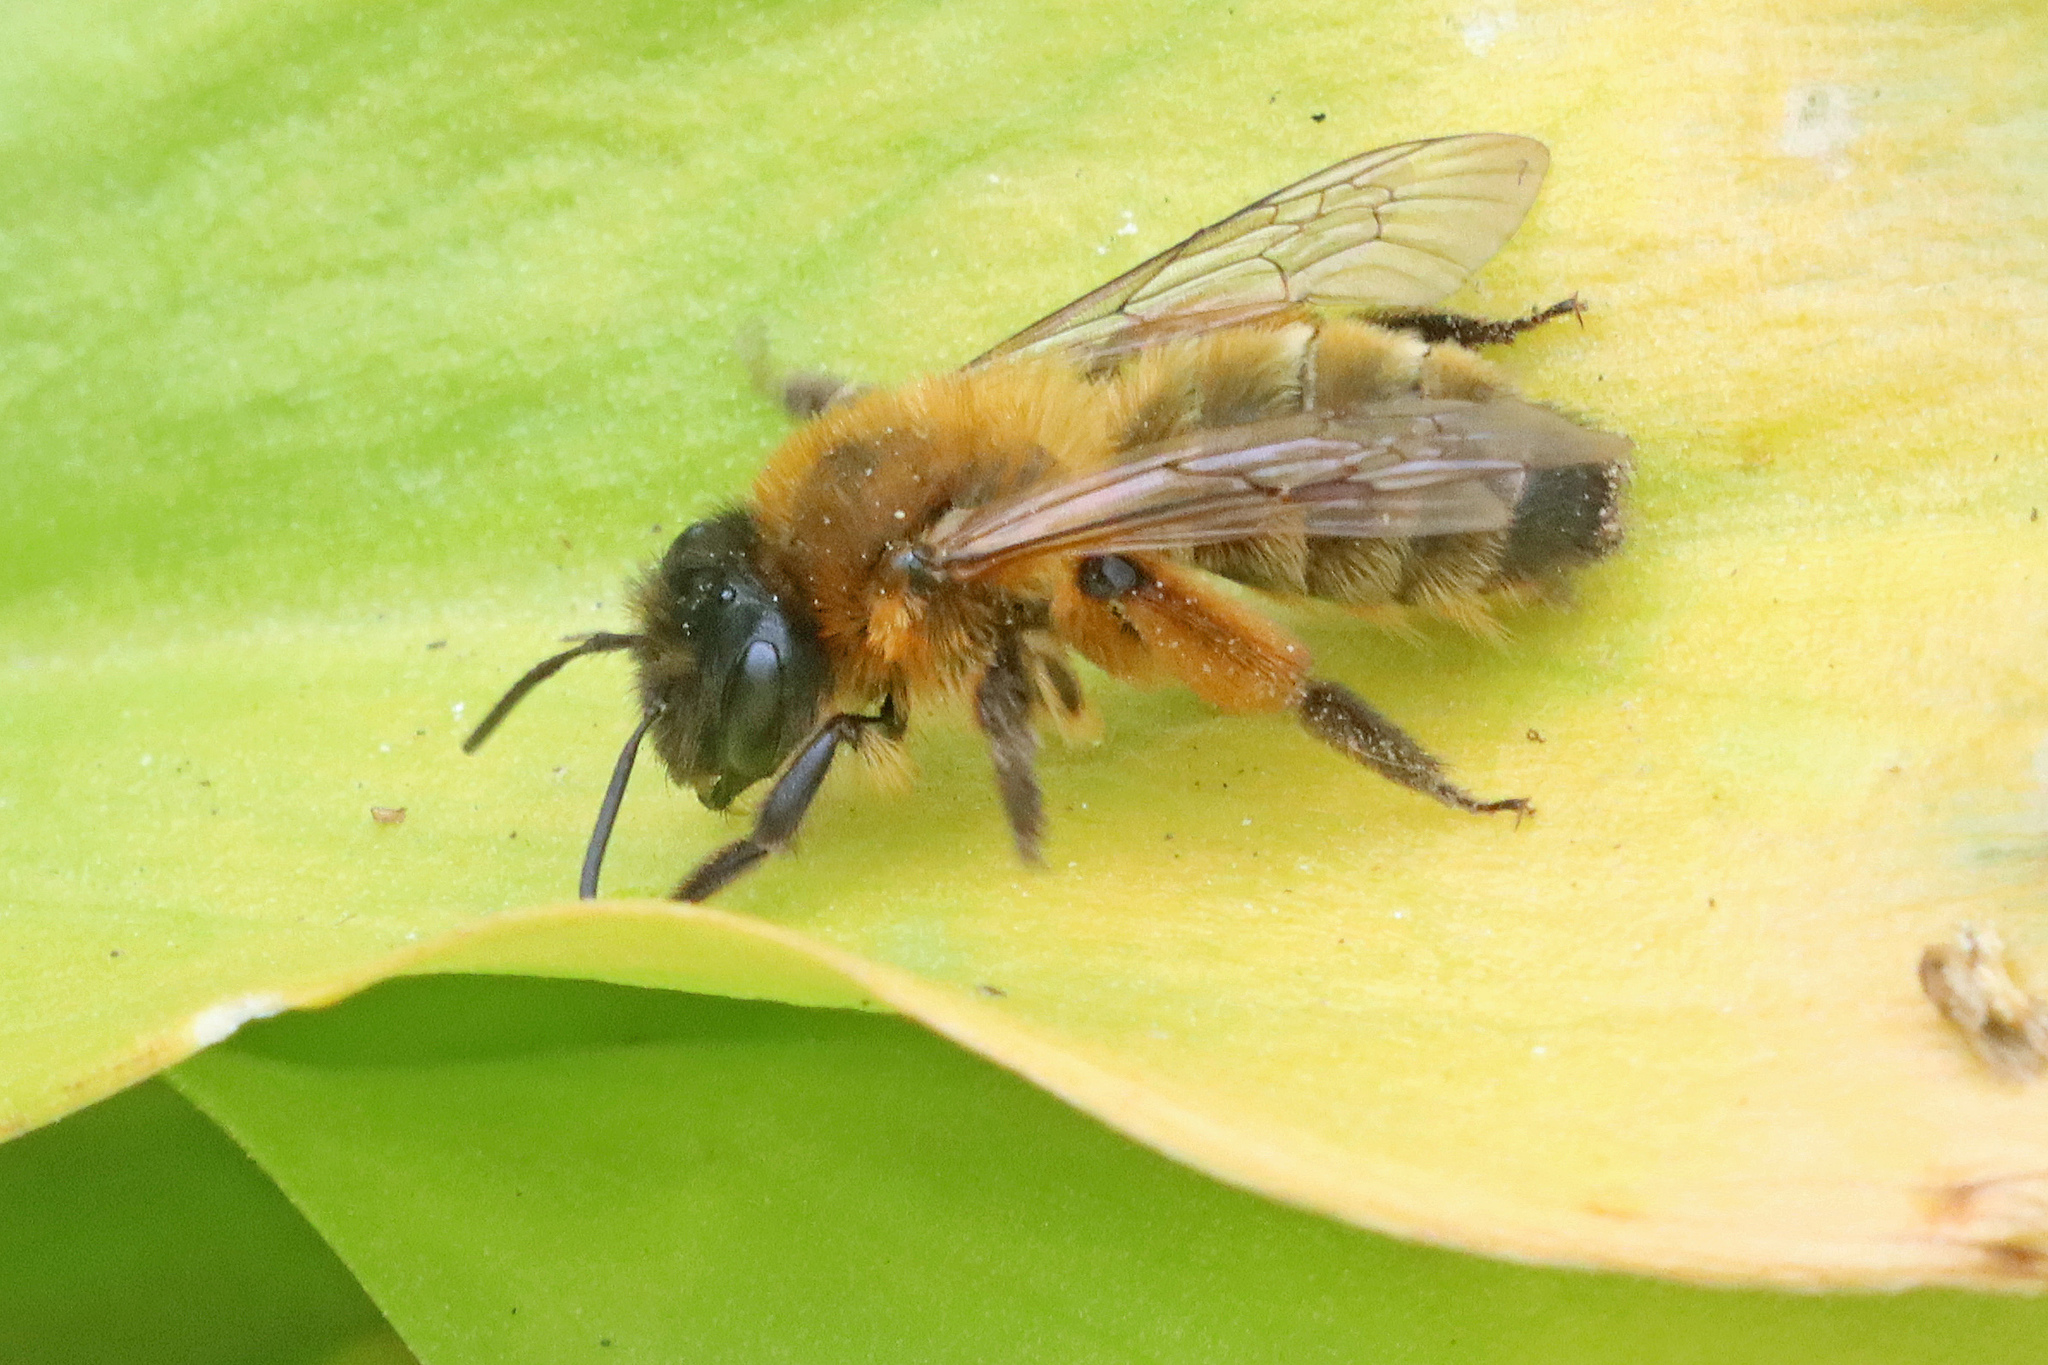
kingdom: Animalia
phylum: Arthropoda
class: Insecta
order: Hymenoptera
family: Andrenidae
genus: Andrena
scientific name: Andrena nigroaenea
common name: Buffish mining bee
